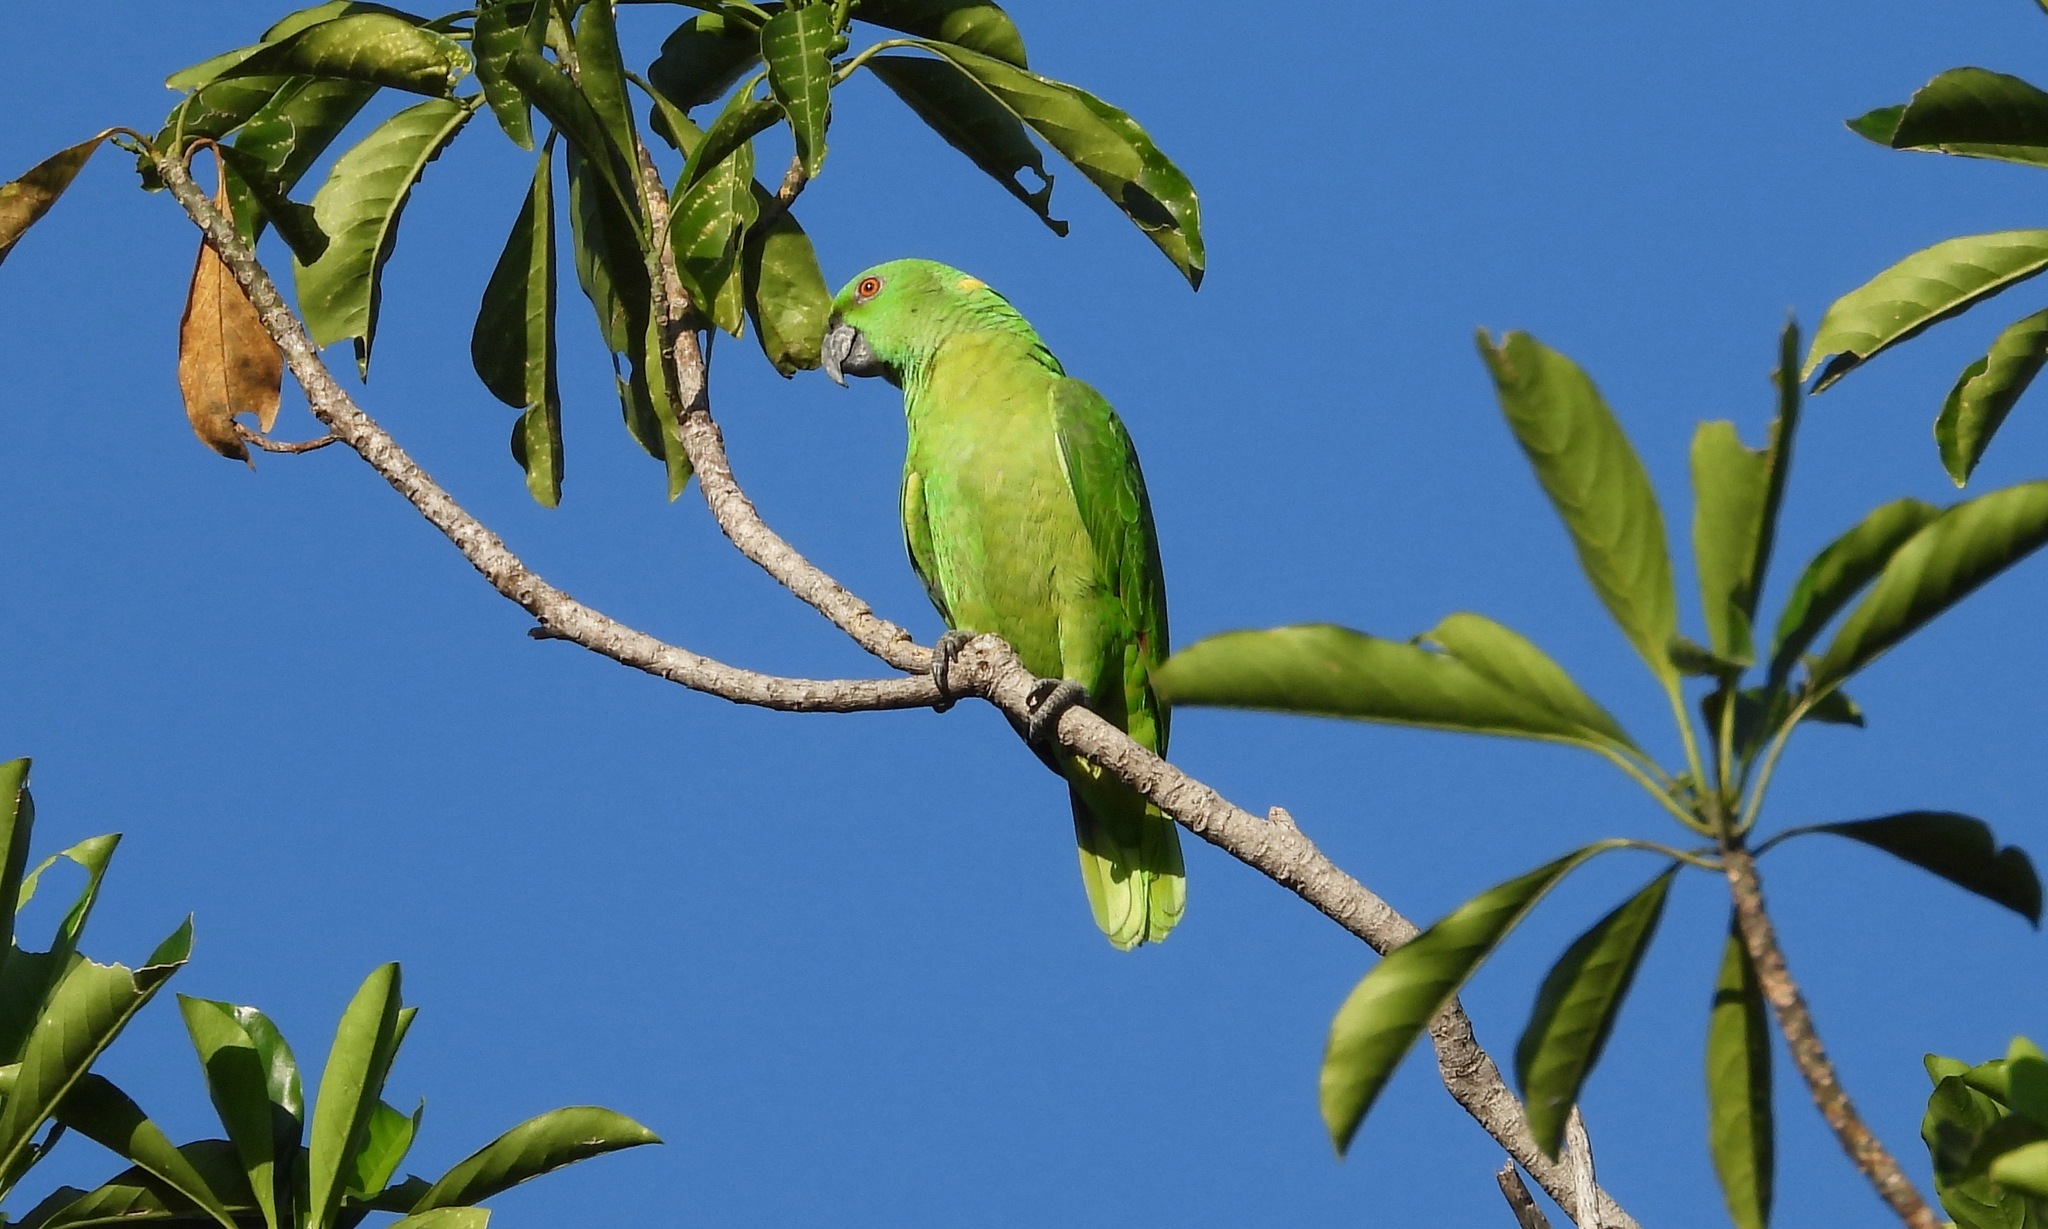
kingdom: Animalia
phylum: Chordata
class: Aves
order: Psittaciformes
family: Psittacidae
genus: Amazona
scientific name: Amazona auropalliata
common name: Yellow-naped amazon
